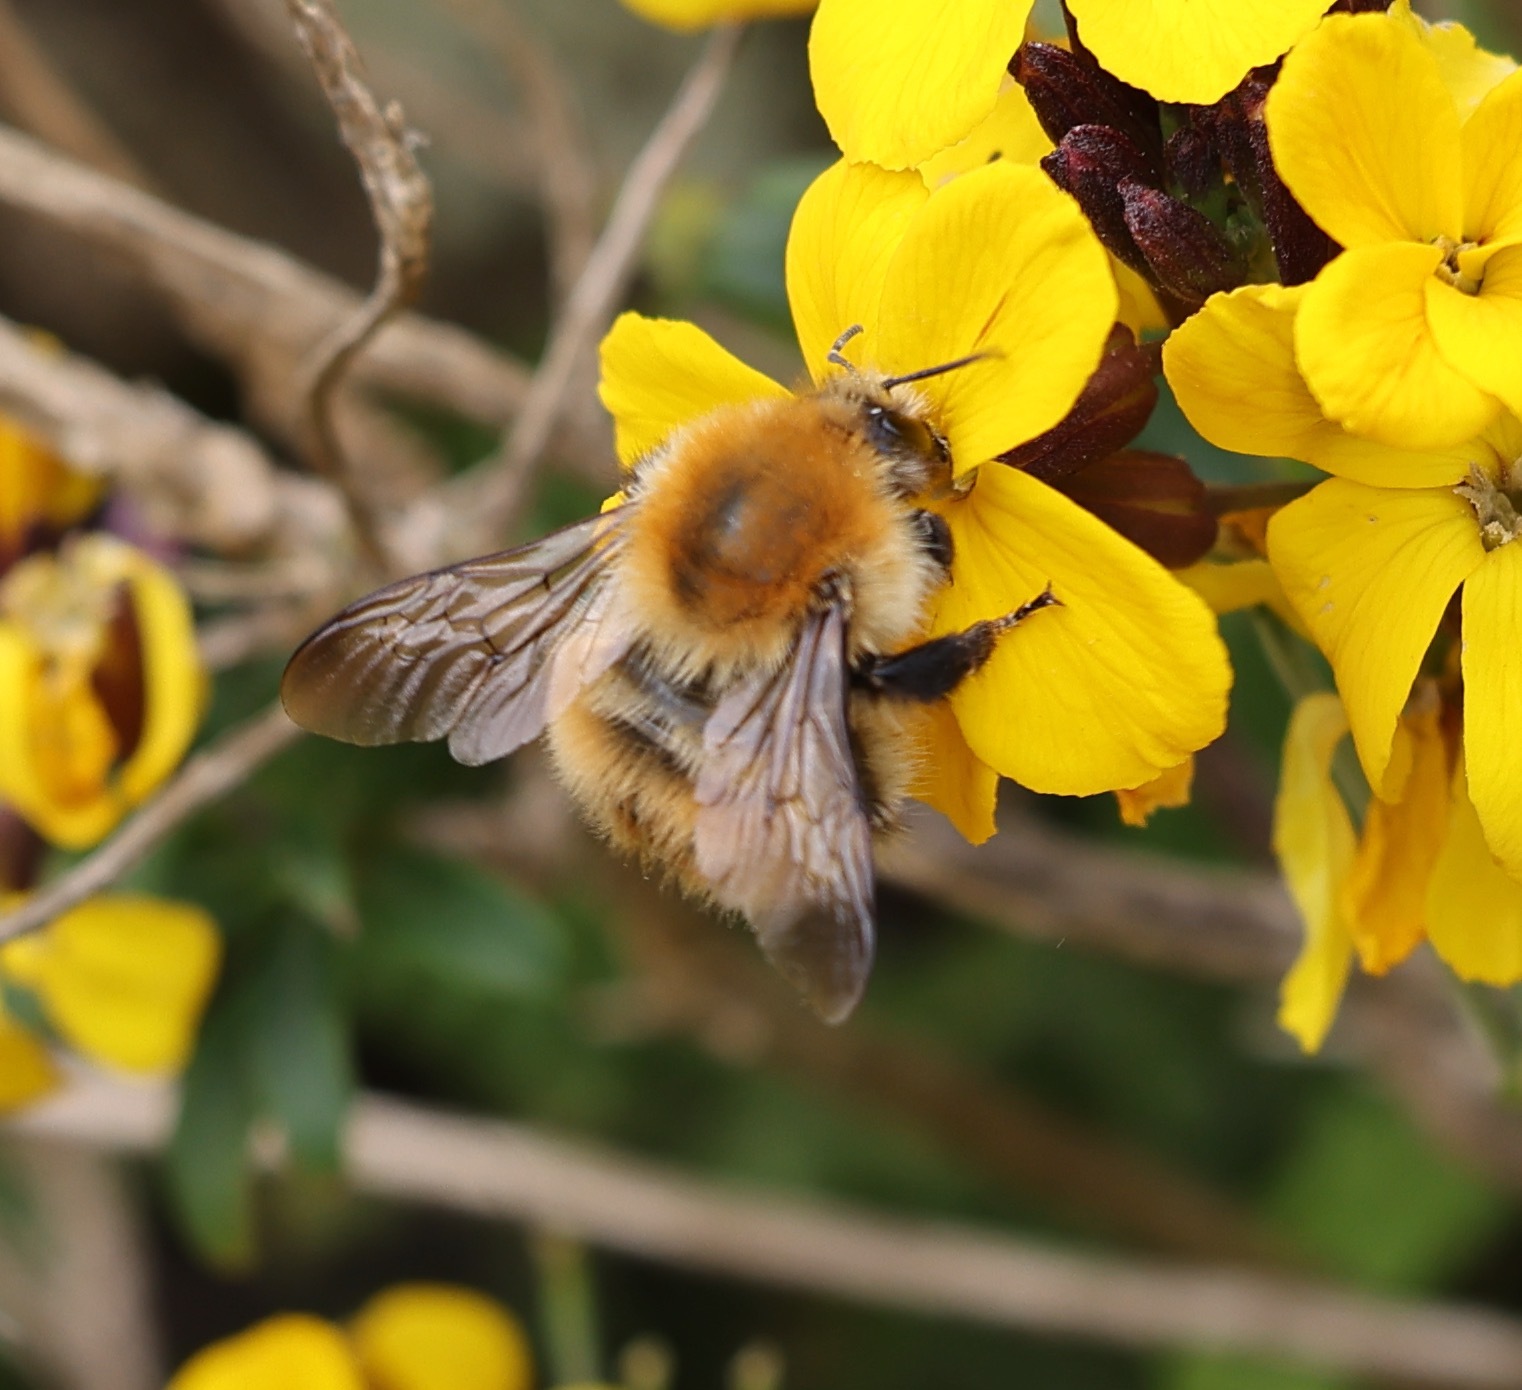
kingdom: Animalia
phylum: Arthropoda
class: Insecta
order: Hymenoptera
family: Apidae
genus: Bombus
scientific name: Bombus pascuorum
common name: Common carder bee
